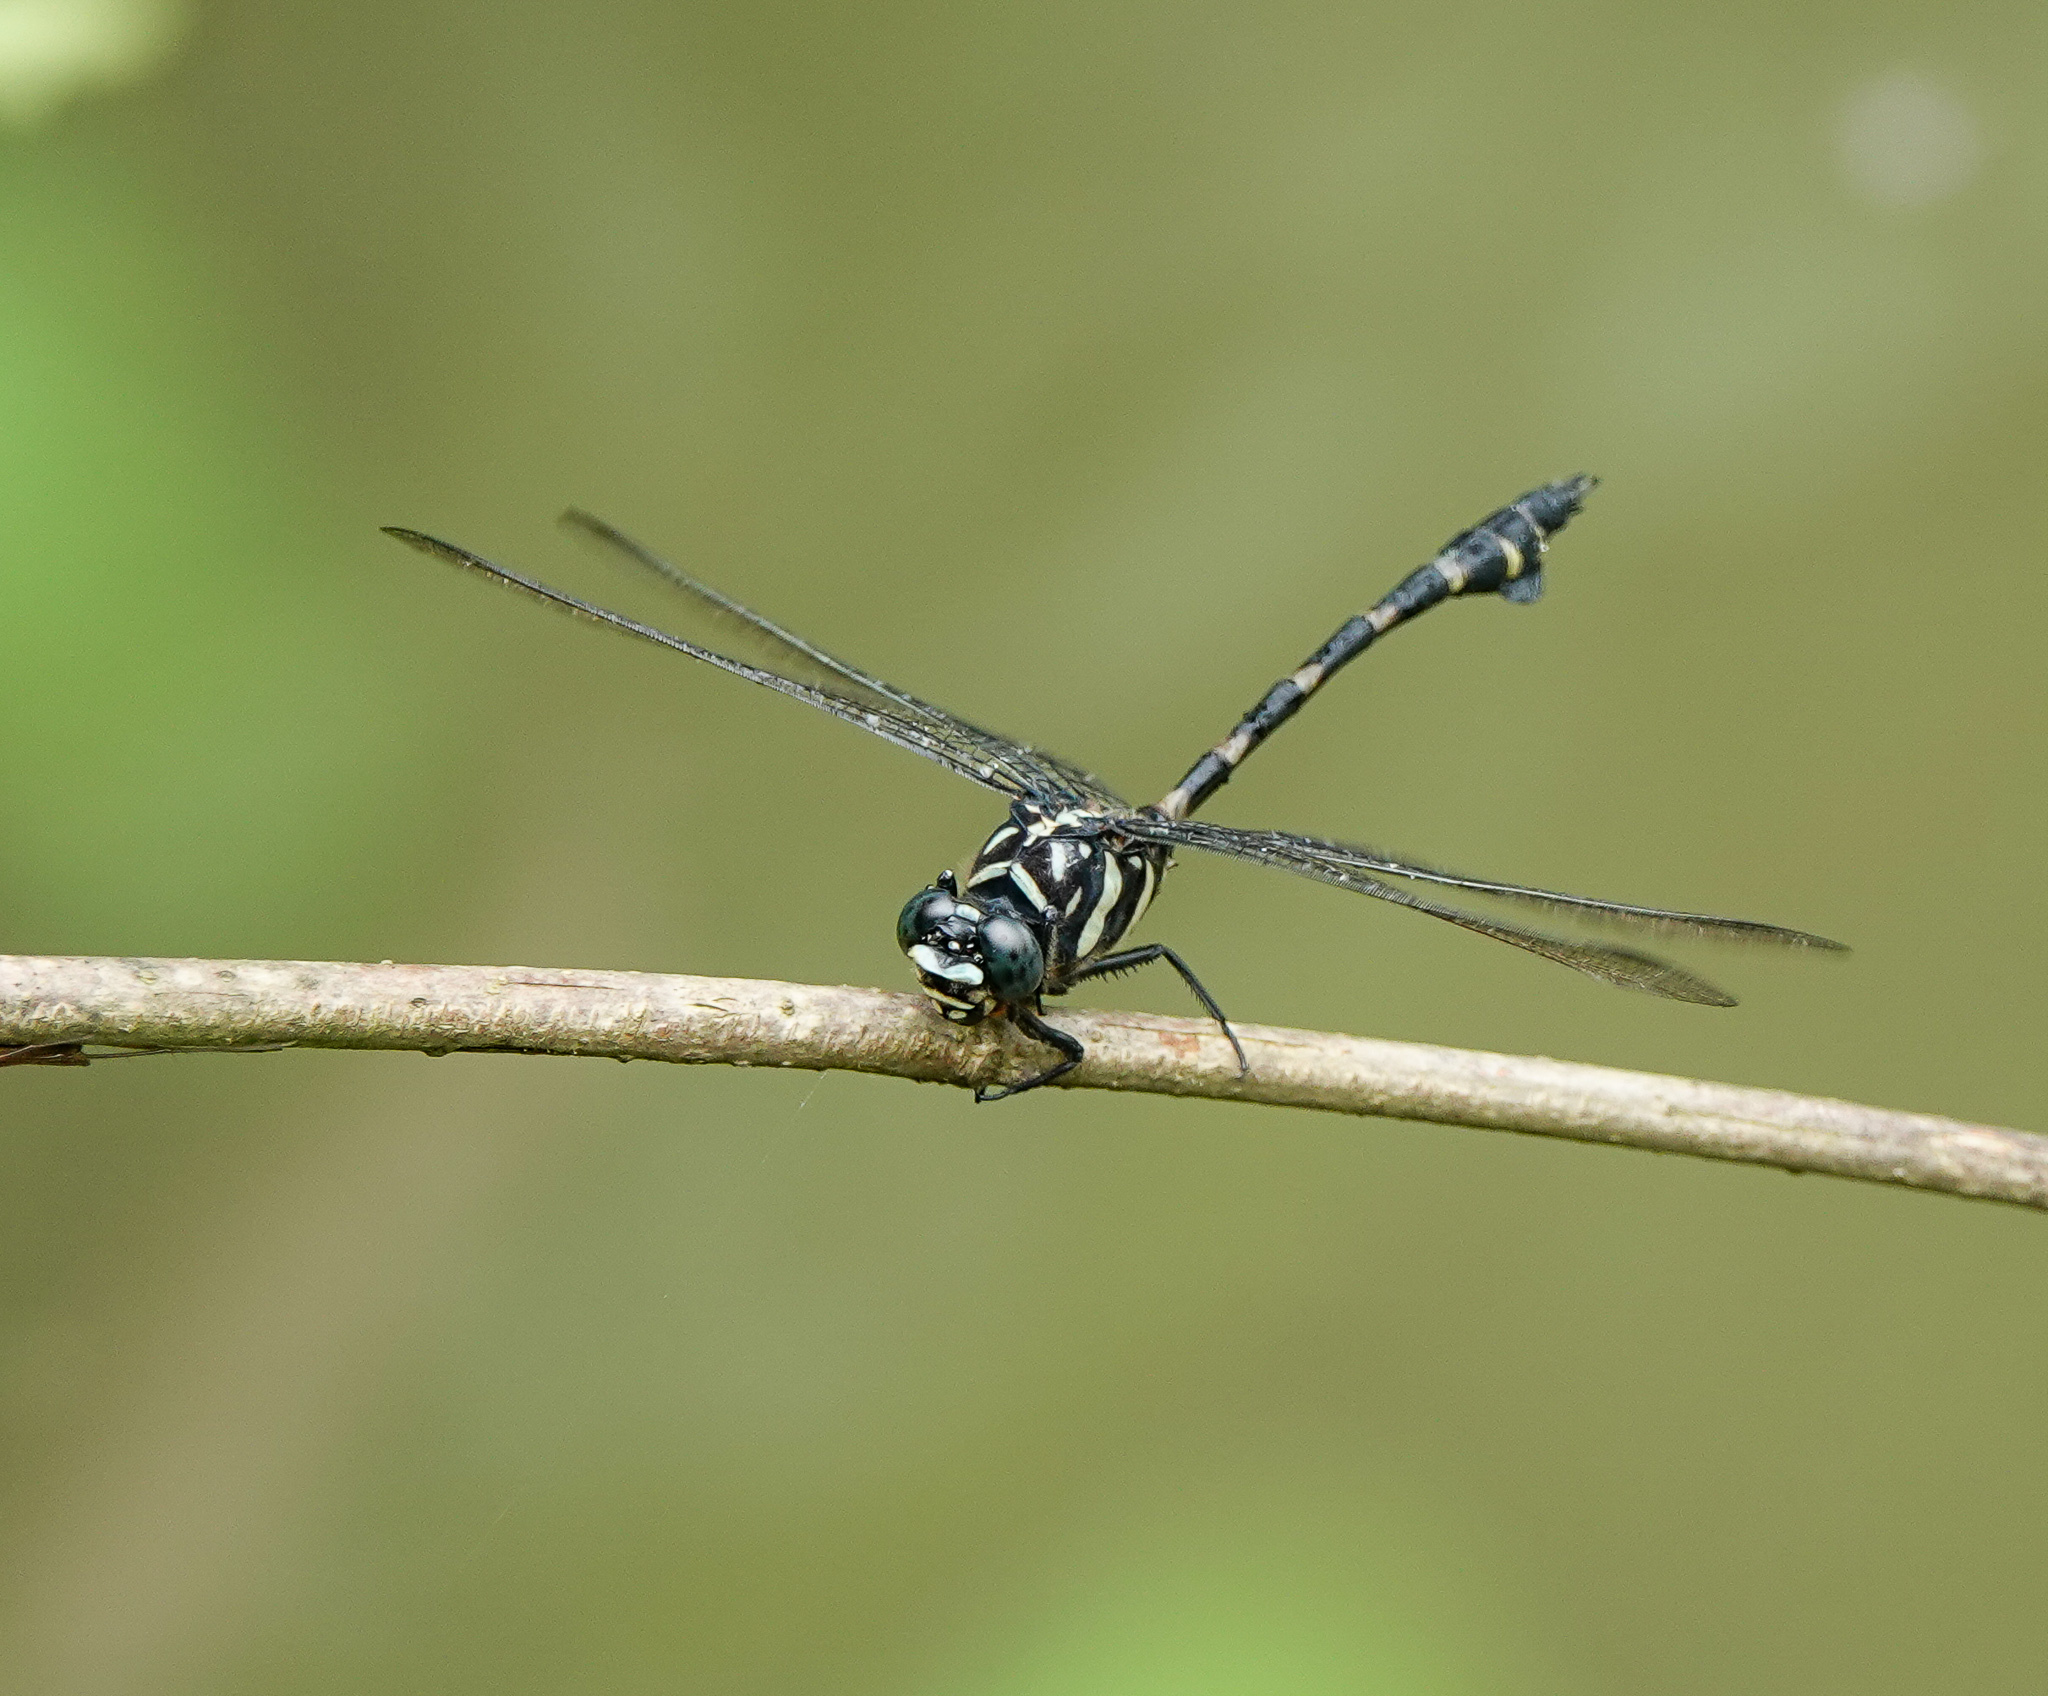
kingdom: Animalia
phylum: Arthropoda
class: Insecta
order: Odonata
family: Gomphidae
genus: Ictinogomphus
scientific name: Ictinogomphus decoratus
